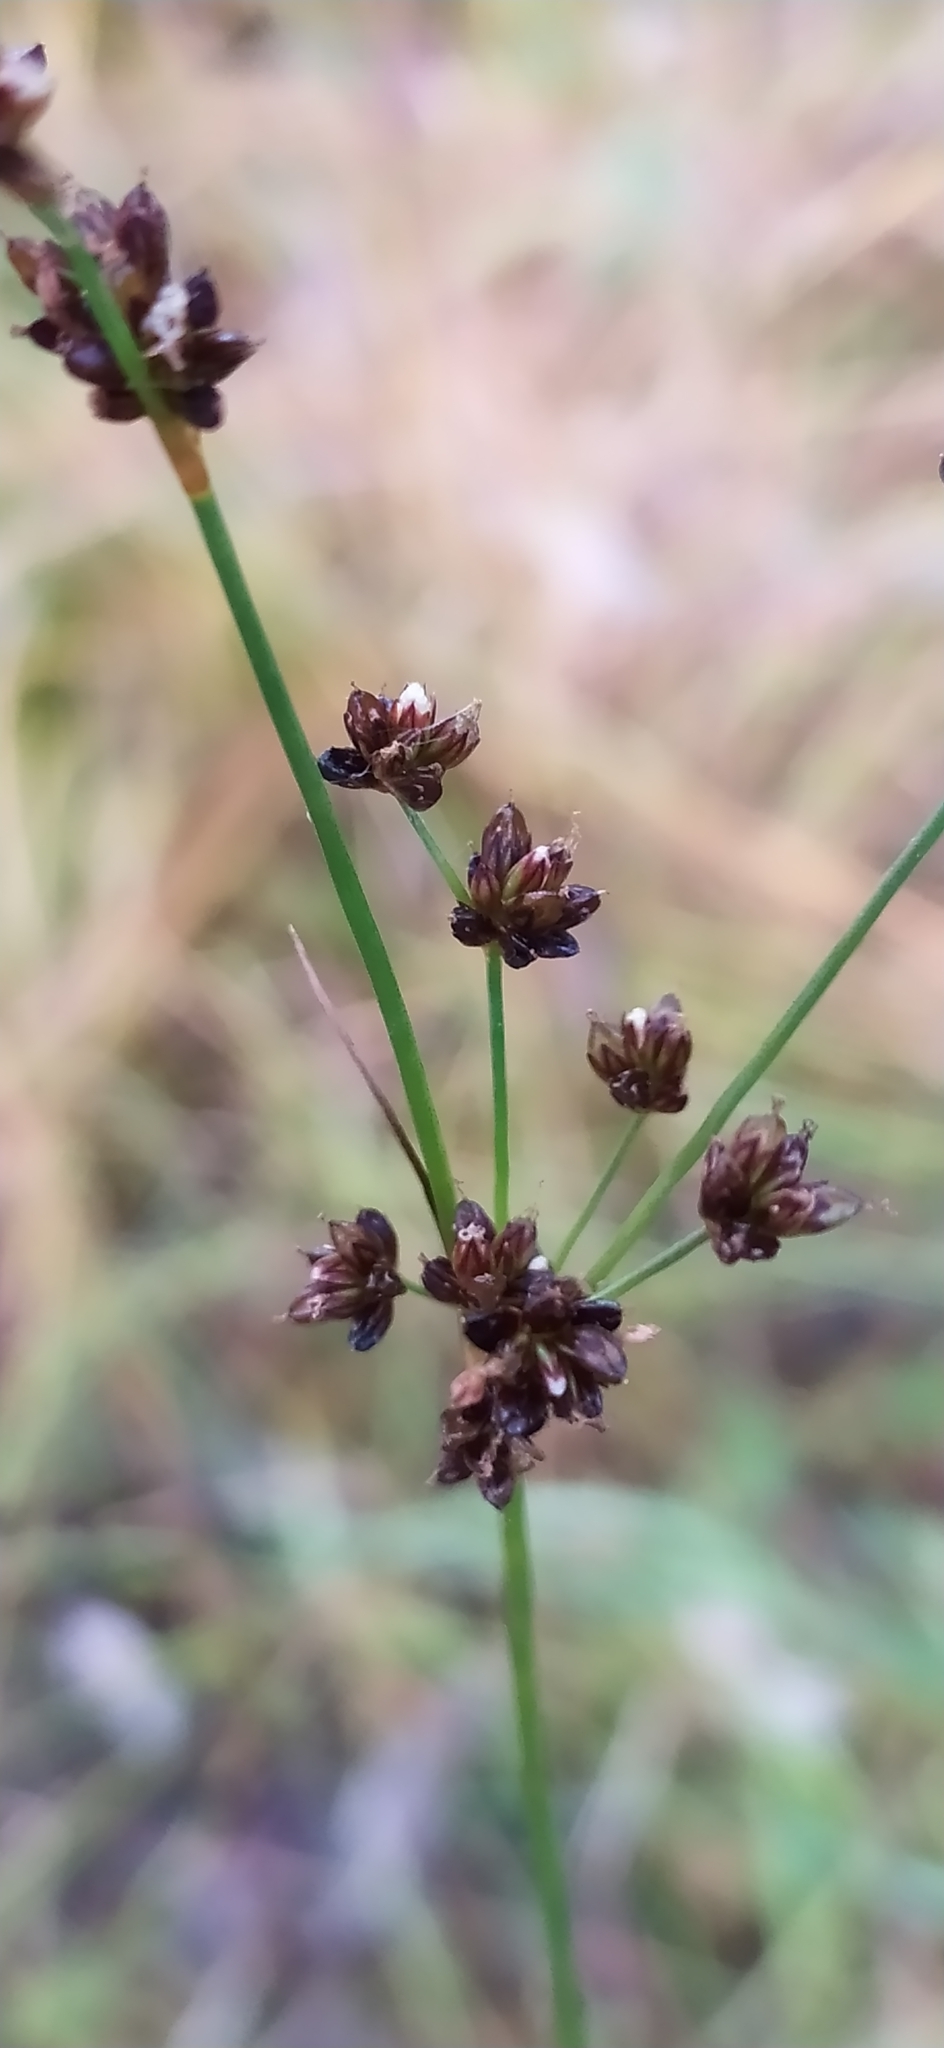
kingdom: Plantae
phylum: Tracheophyta
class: Liliopsida
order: Poales
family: Juncaceae
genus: Juncus
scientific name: Juncus alpinoarticulatus
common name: Alpine rush
